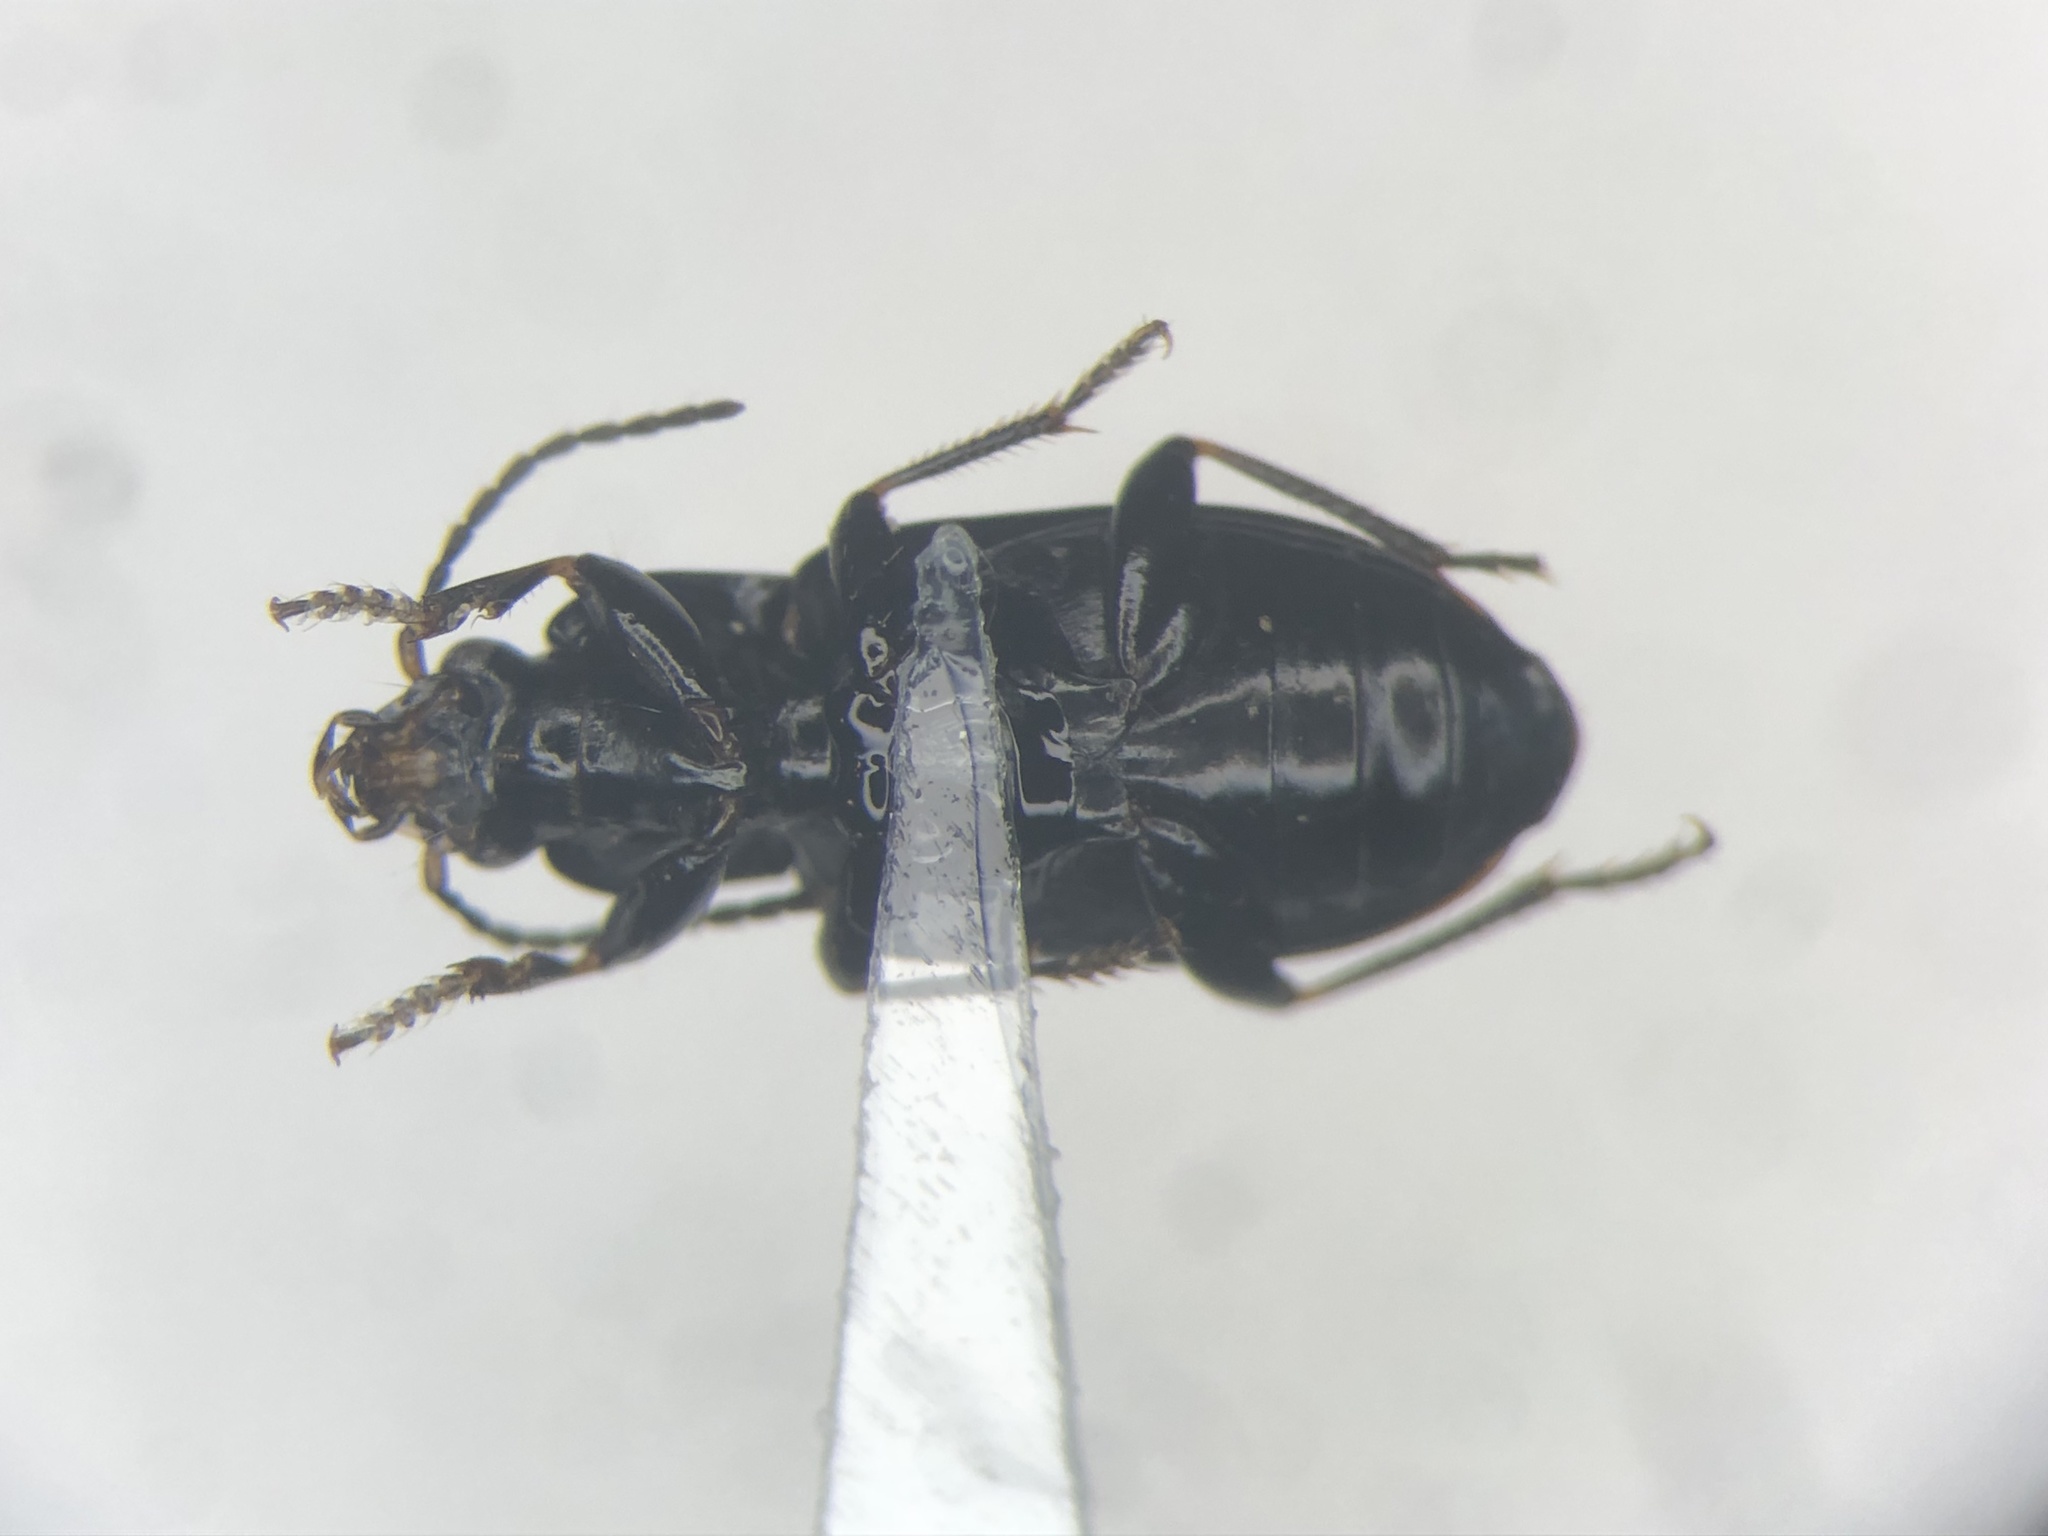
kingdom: Animalia
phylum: Arthropoda
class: Insecta
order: Coleoptera
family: Carabidae
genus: Bradycellus
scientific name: Bradycellus nigrinus
